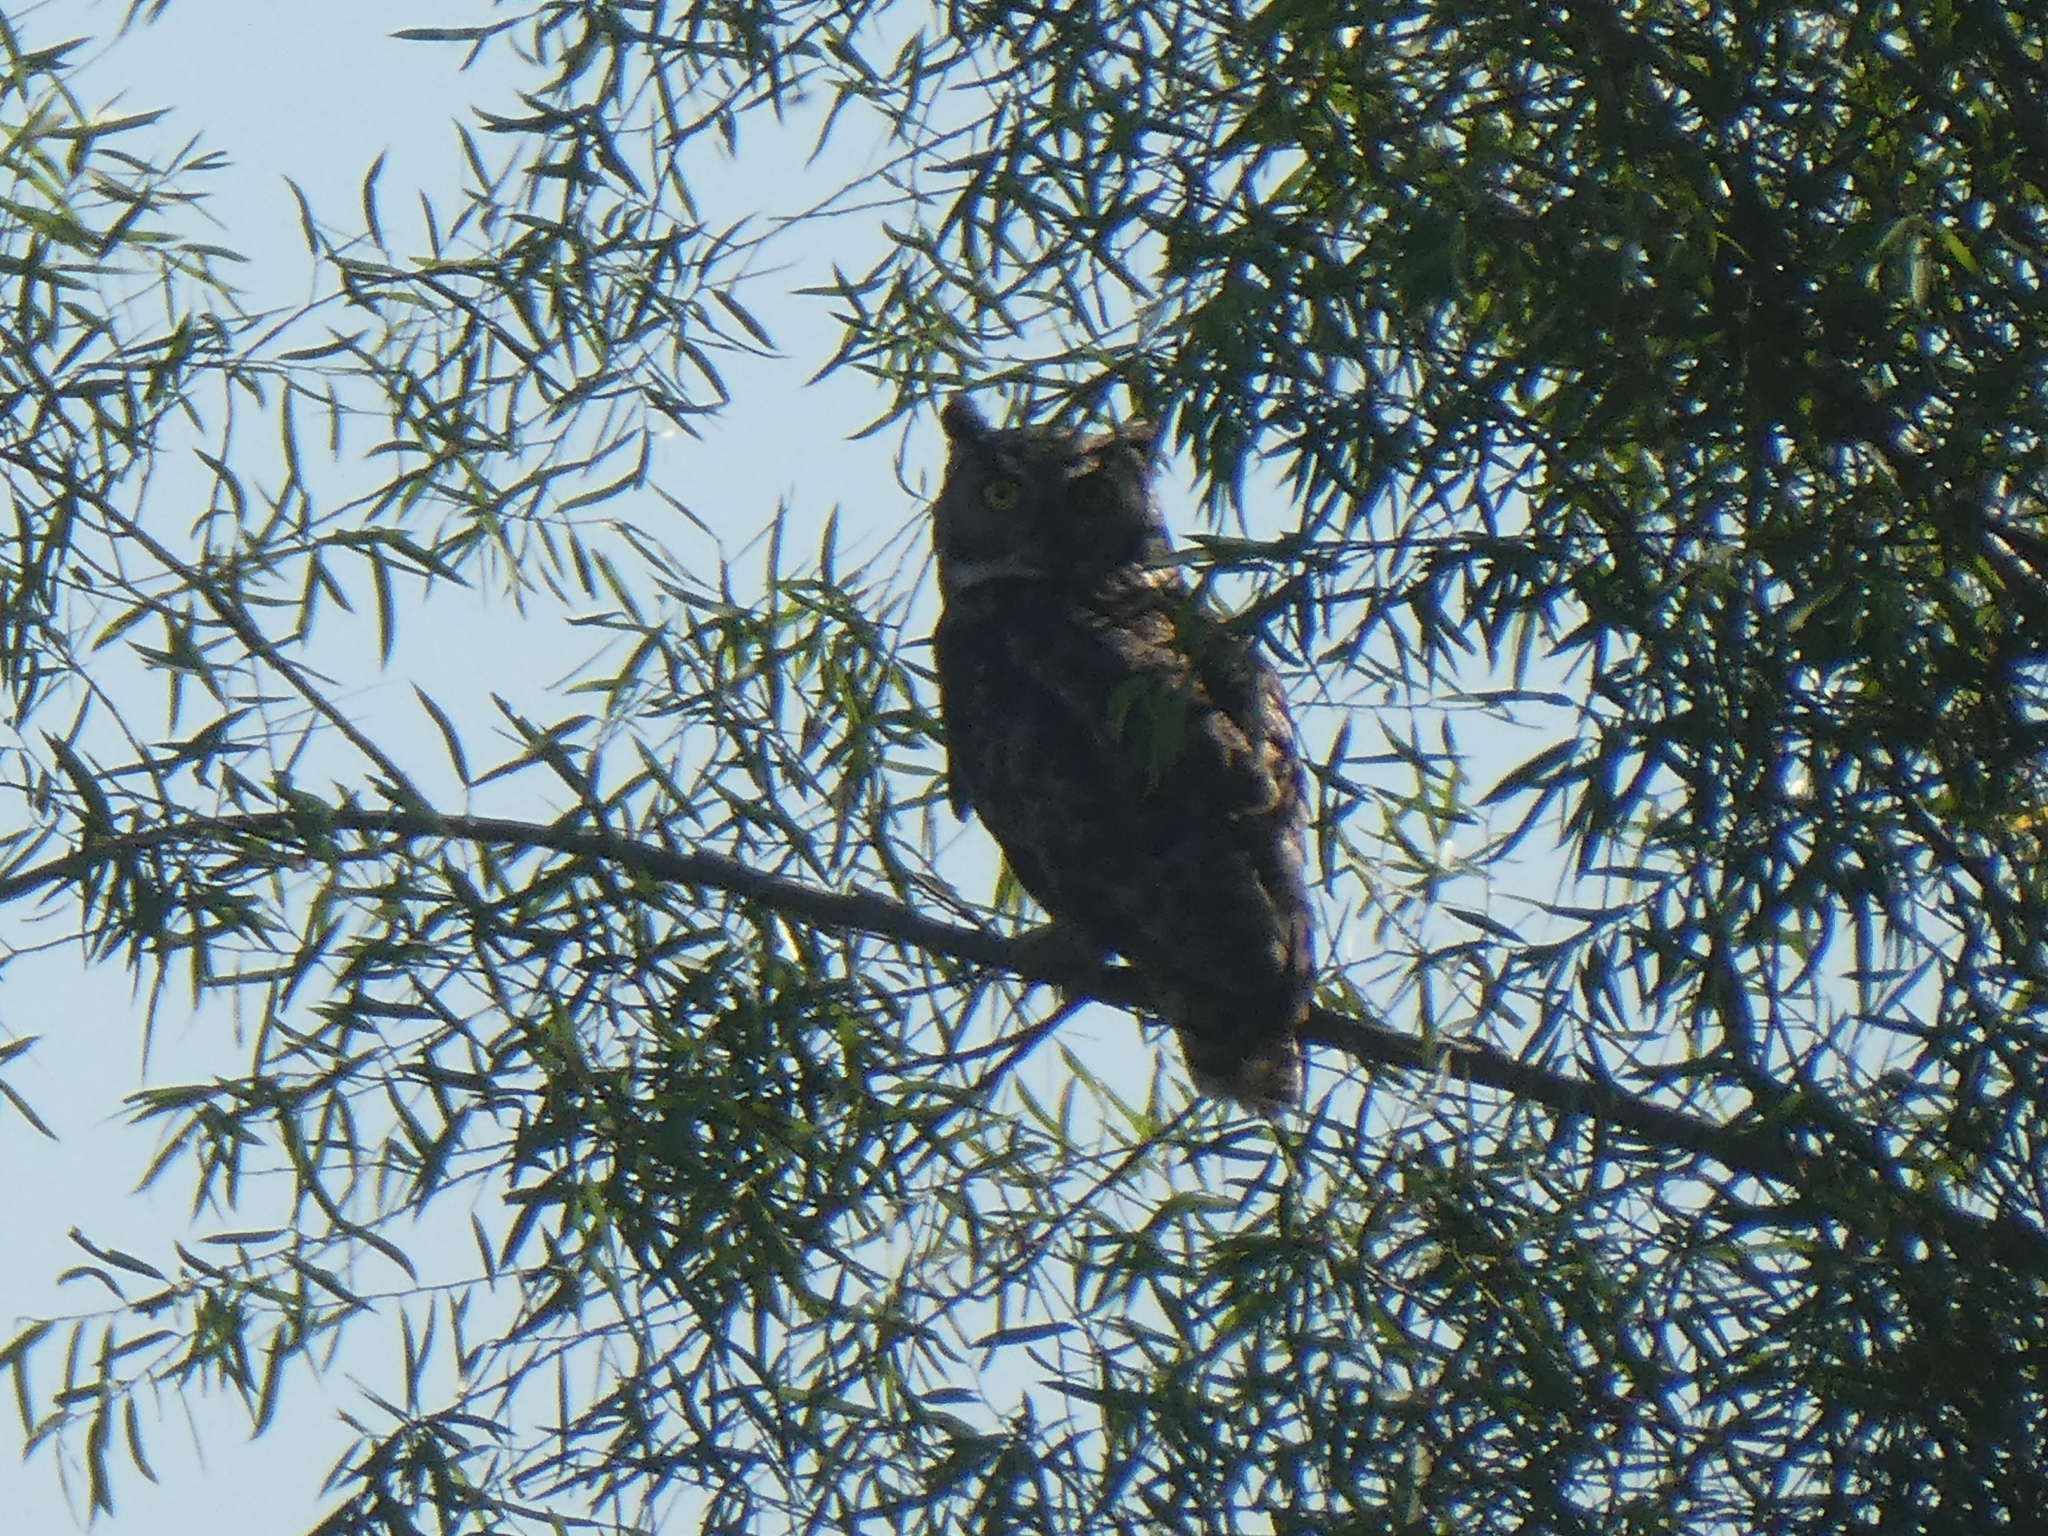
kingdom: Animalia
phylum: Chordata
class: Aves
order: Strigiformes
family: Strigidae
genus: Bubo
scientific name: Bubo virginianus
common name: Great horned owl
